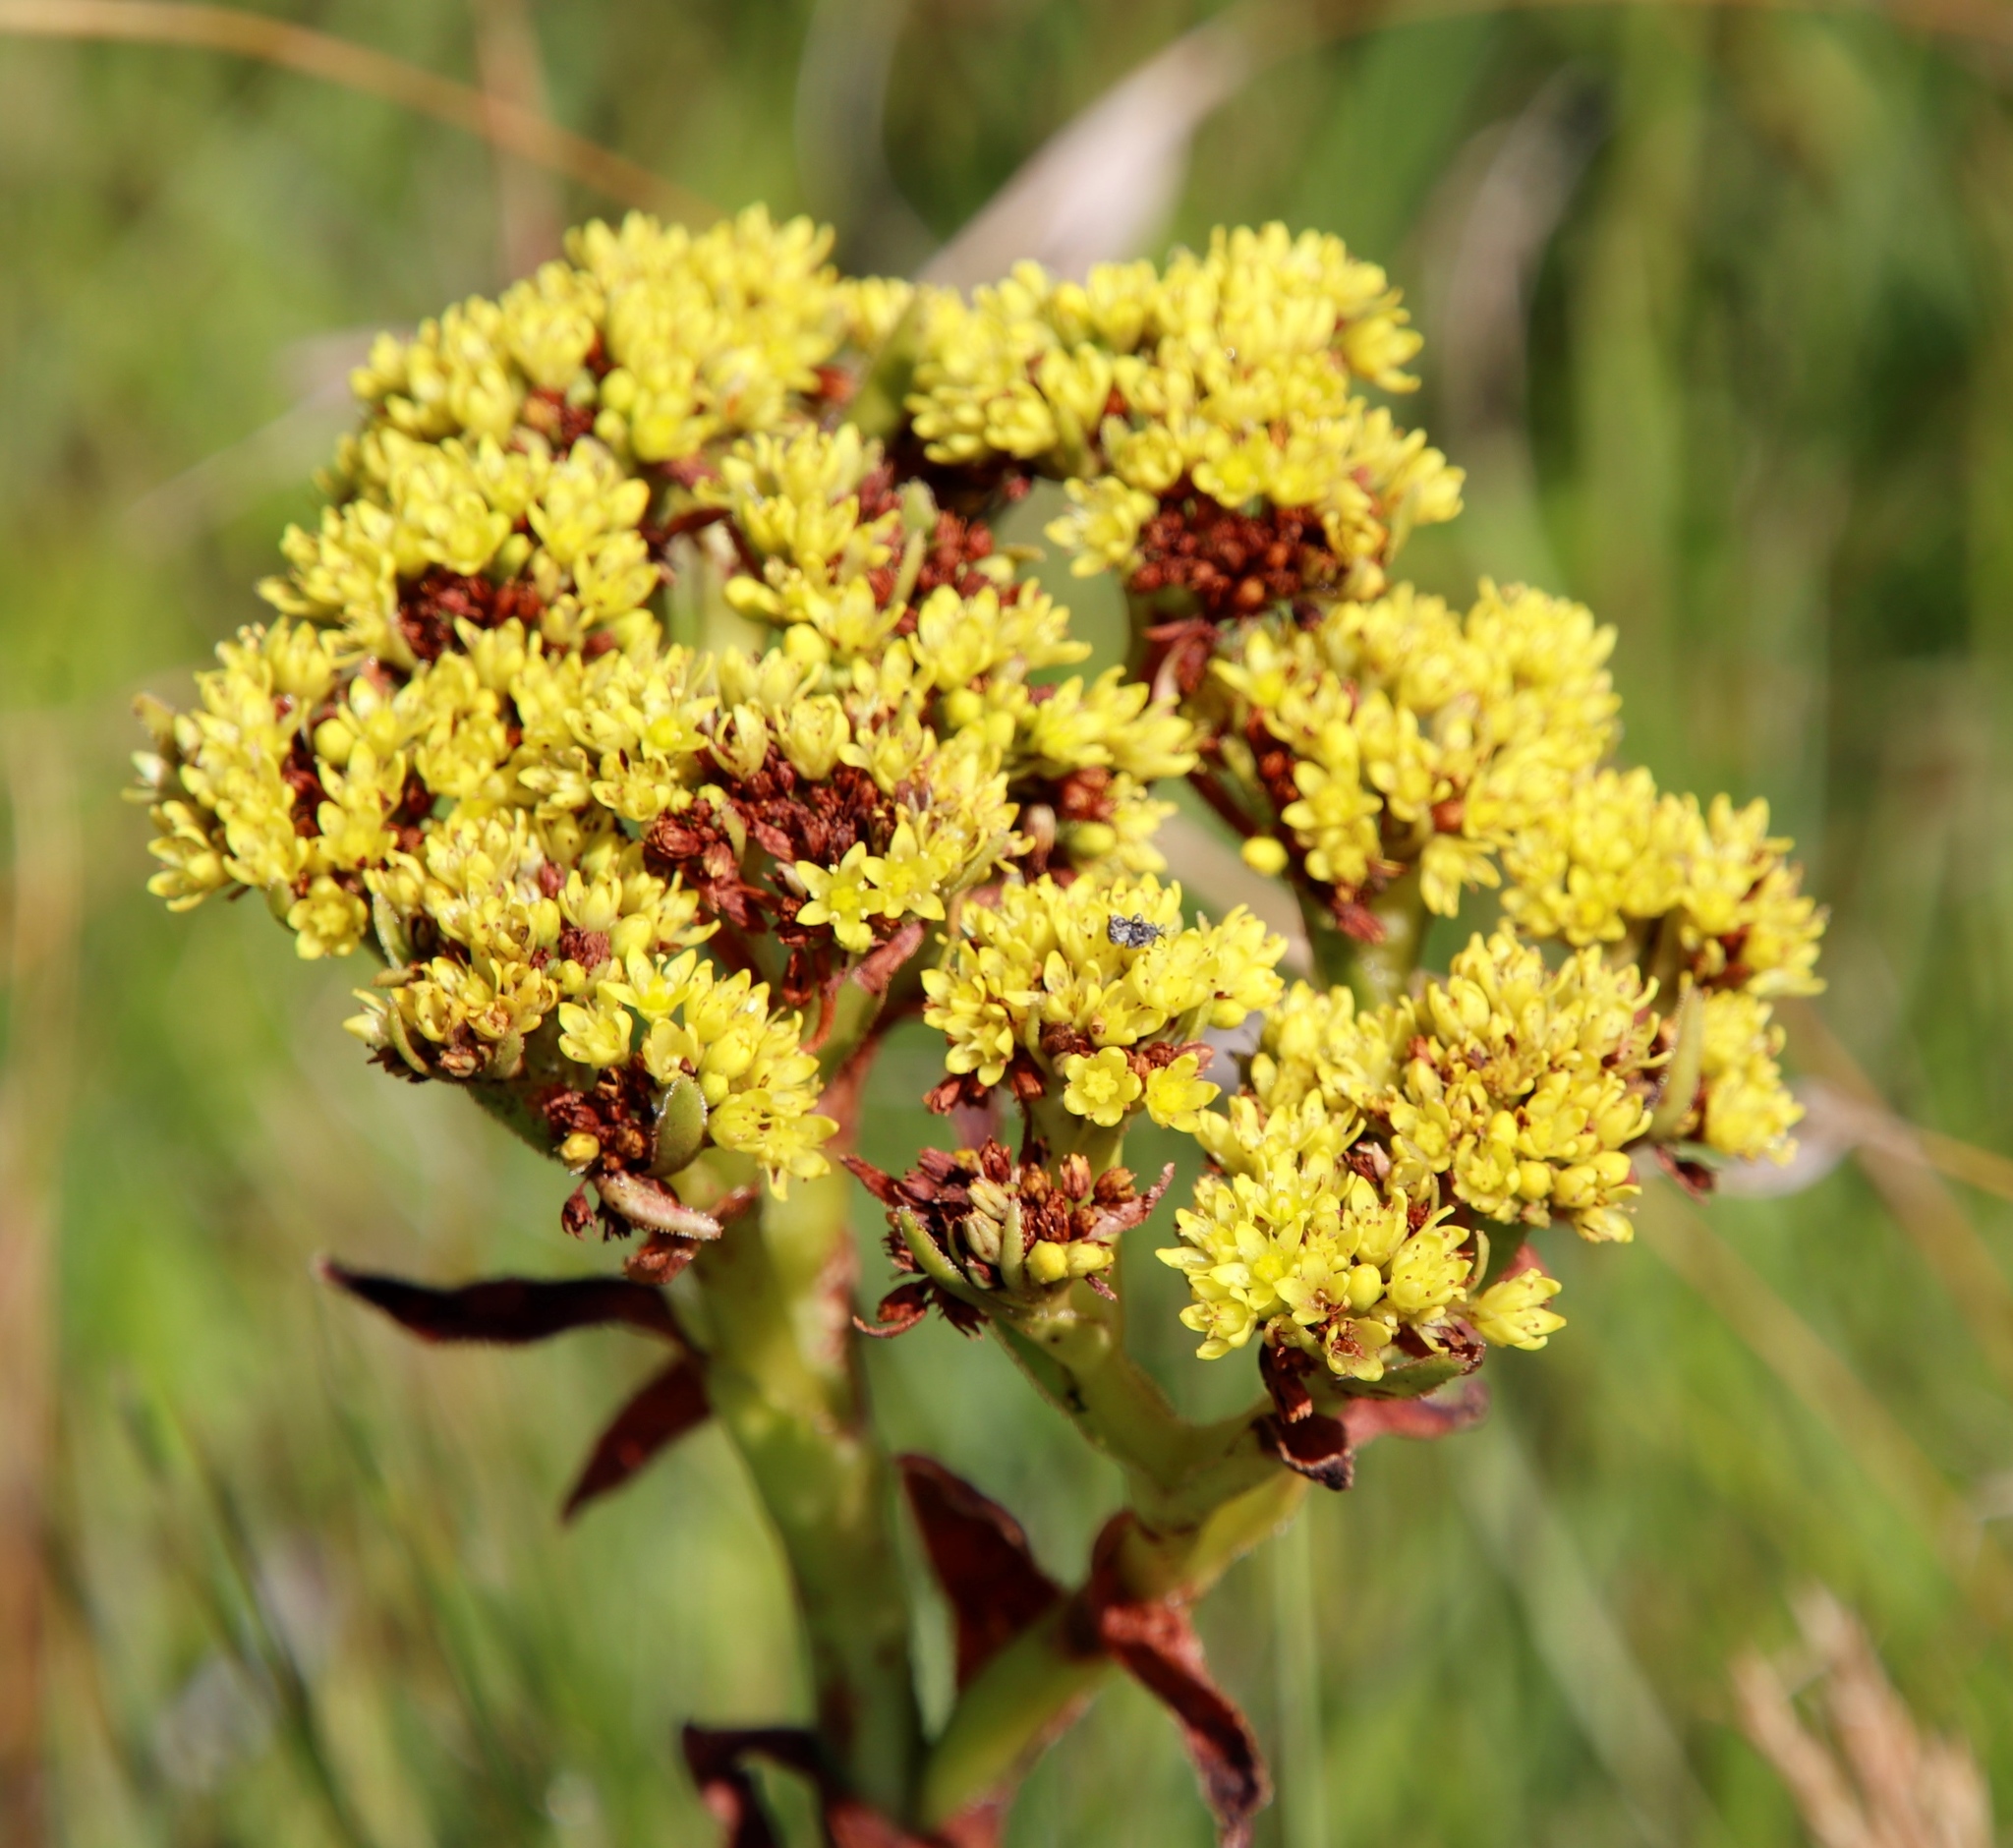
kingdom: Plantae
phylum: Tracheophyta
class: Magnoliopsida
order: Saxifragales
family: Crassulaceae
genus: Crassula
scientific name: Crassula vaginata
